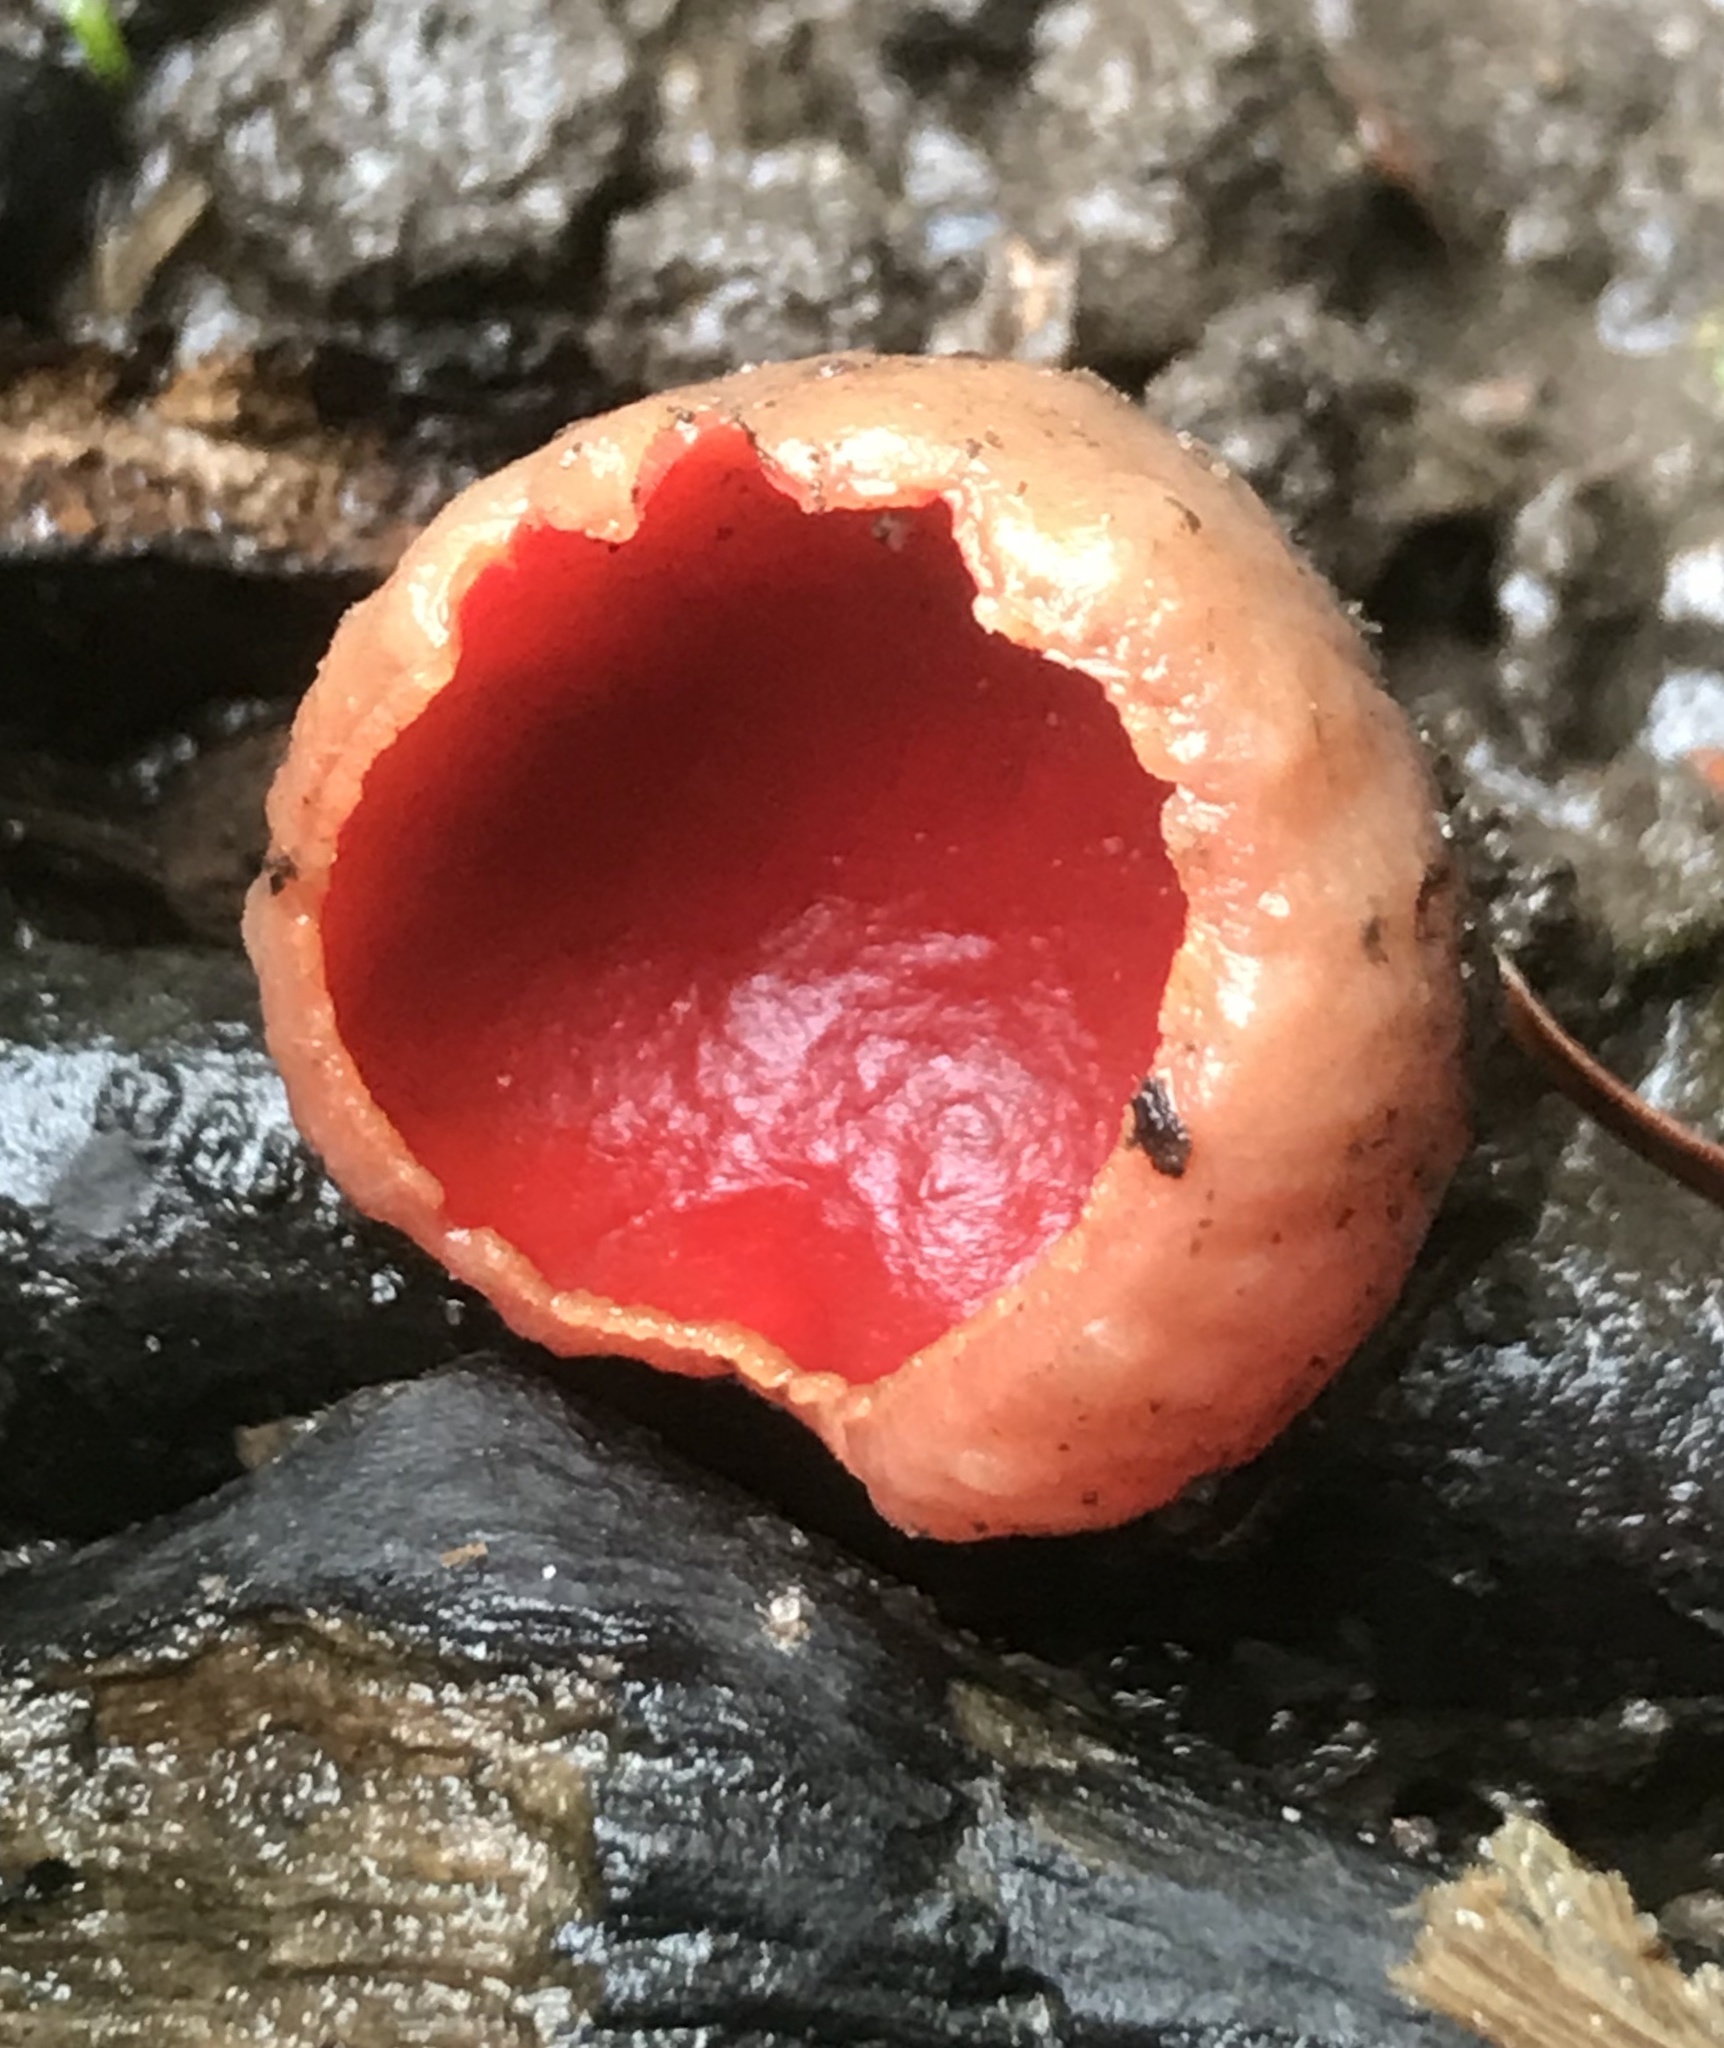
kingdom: Fungi
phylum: Ascomycota
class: Pezizomycetes
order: Pezizales
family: Sarcoscyphaceae
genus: Sarcoscypha
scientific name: Sarcoscypha
